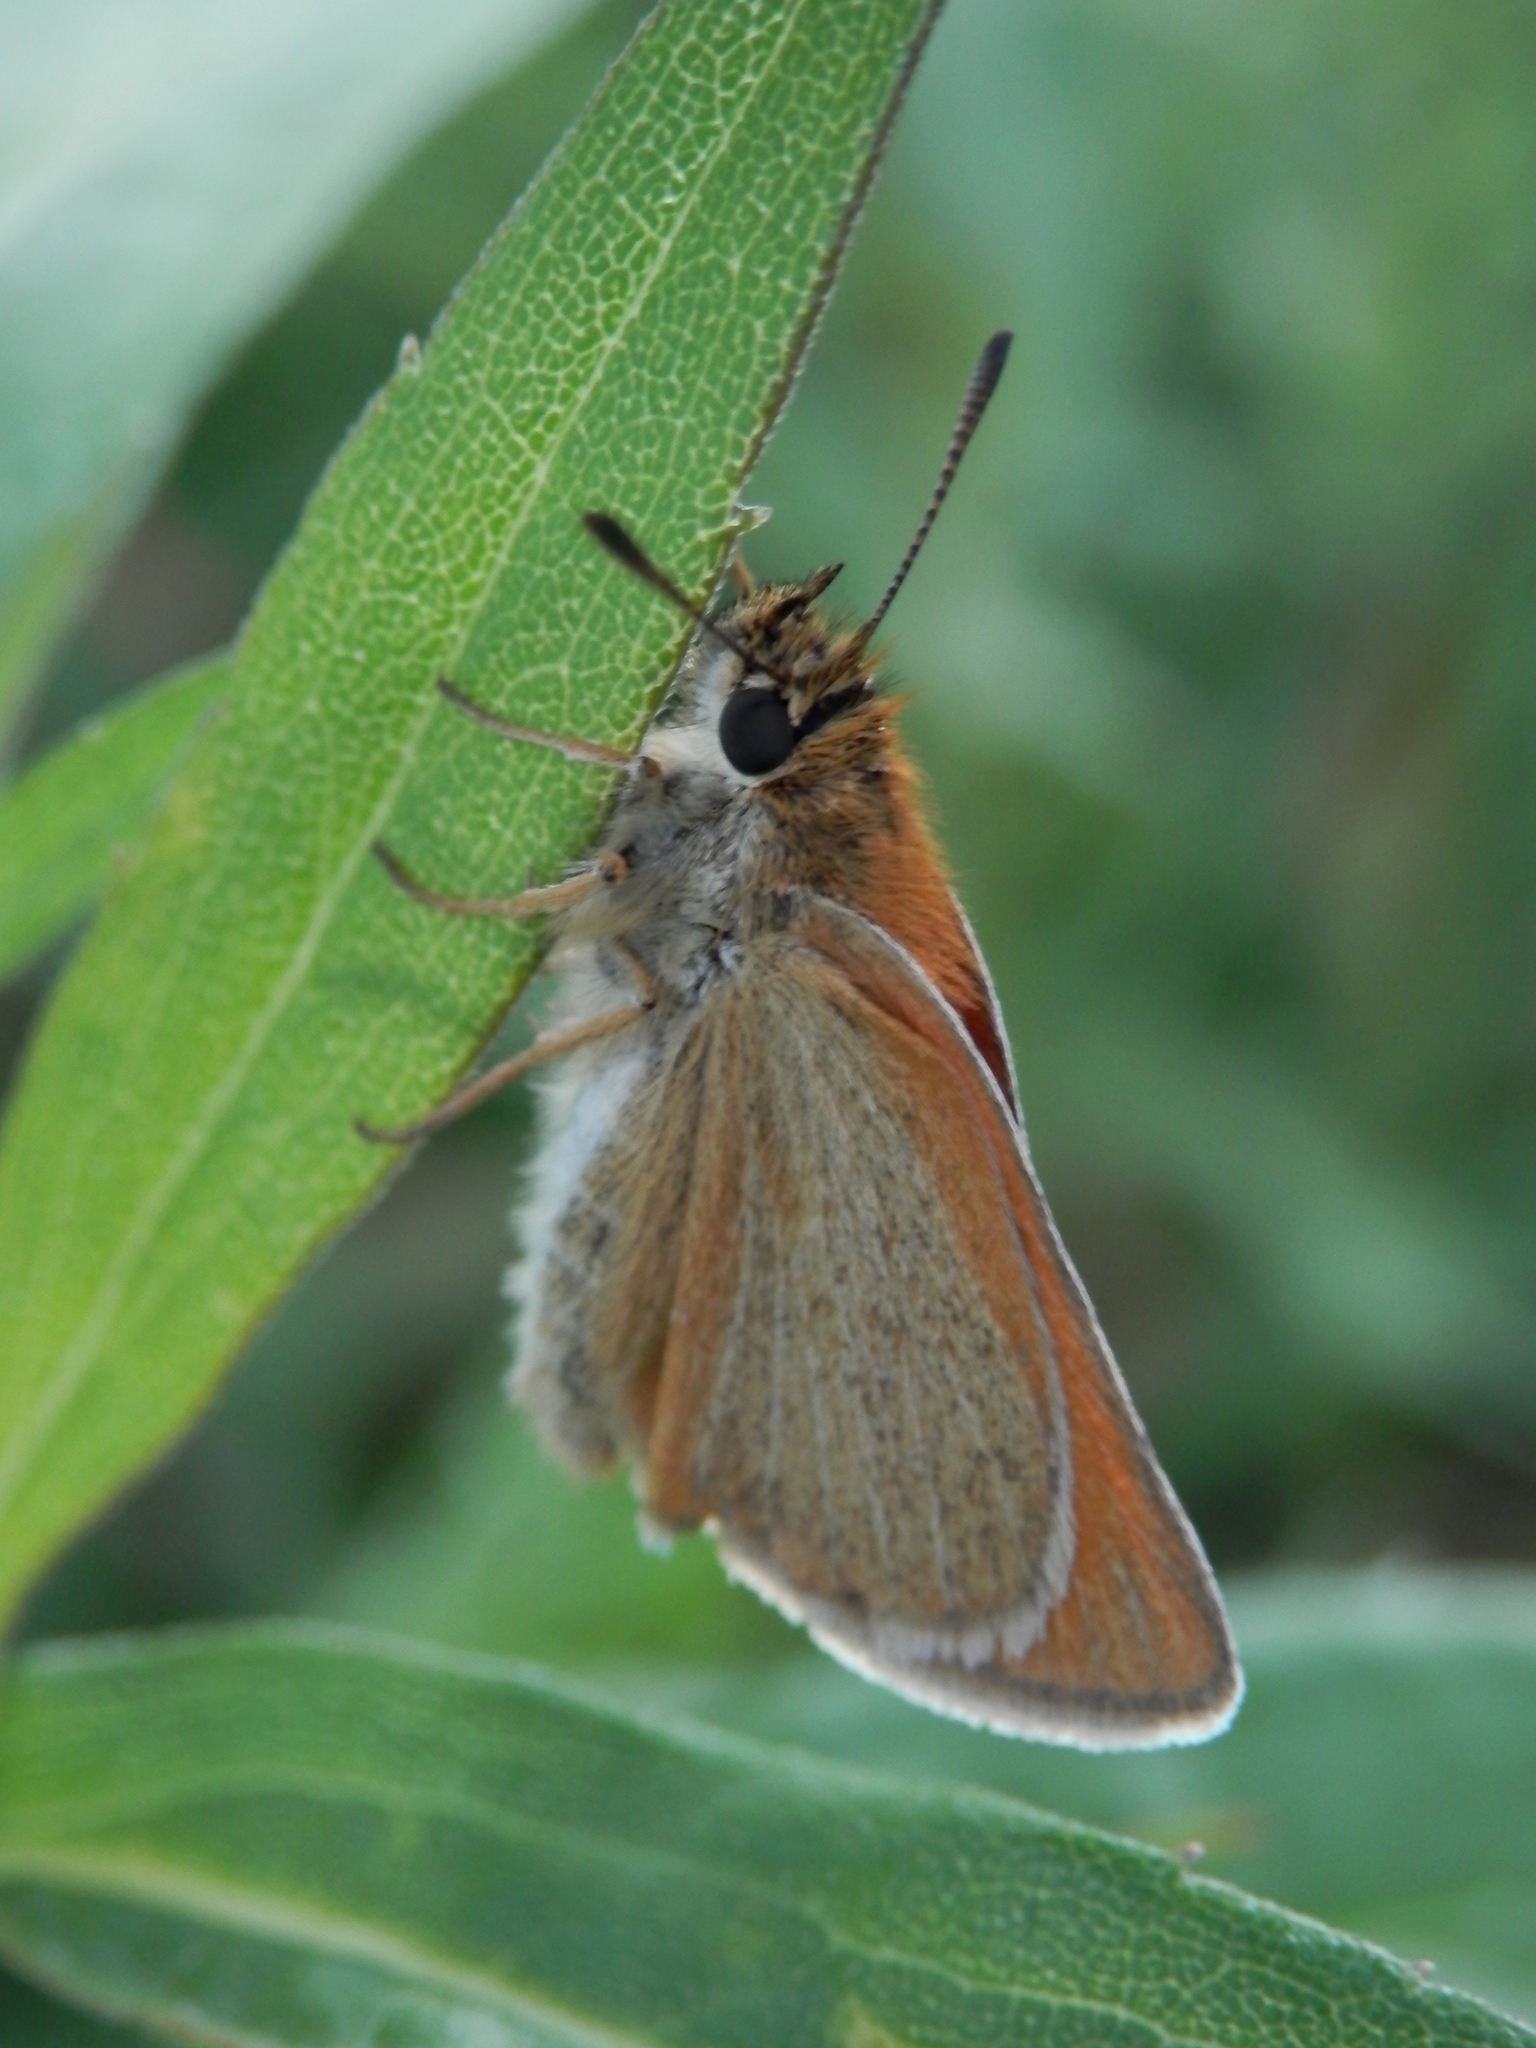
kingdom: Animalia
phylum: Arthropoda
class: Insecta
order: Lepidoptera
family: Hesperiidae
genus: Thymelicus
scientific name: Thymelicus lineola
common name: Essex skipper
